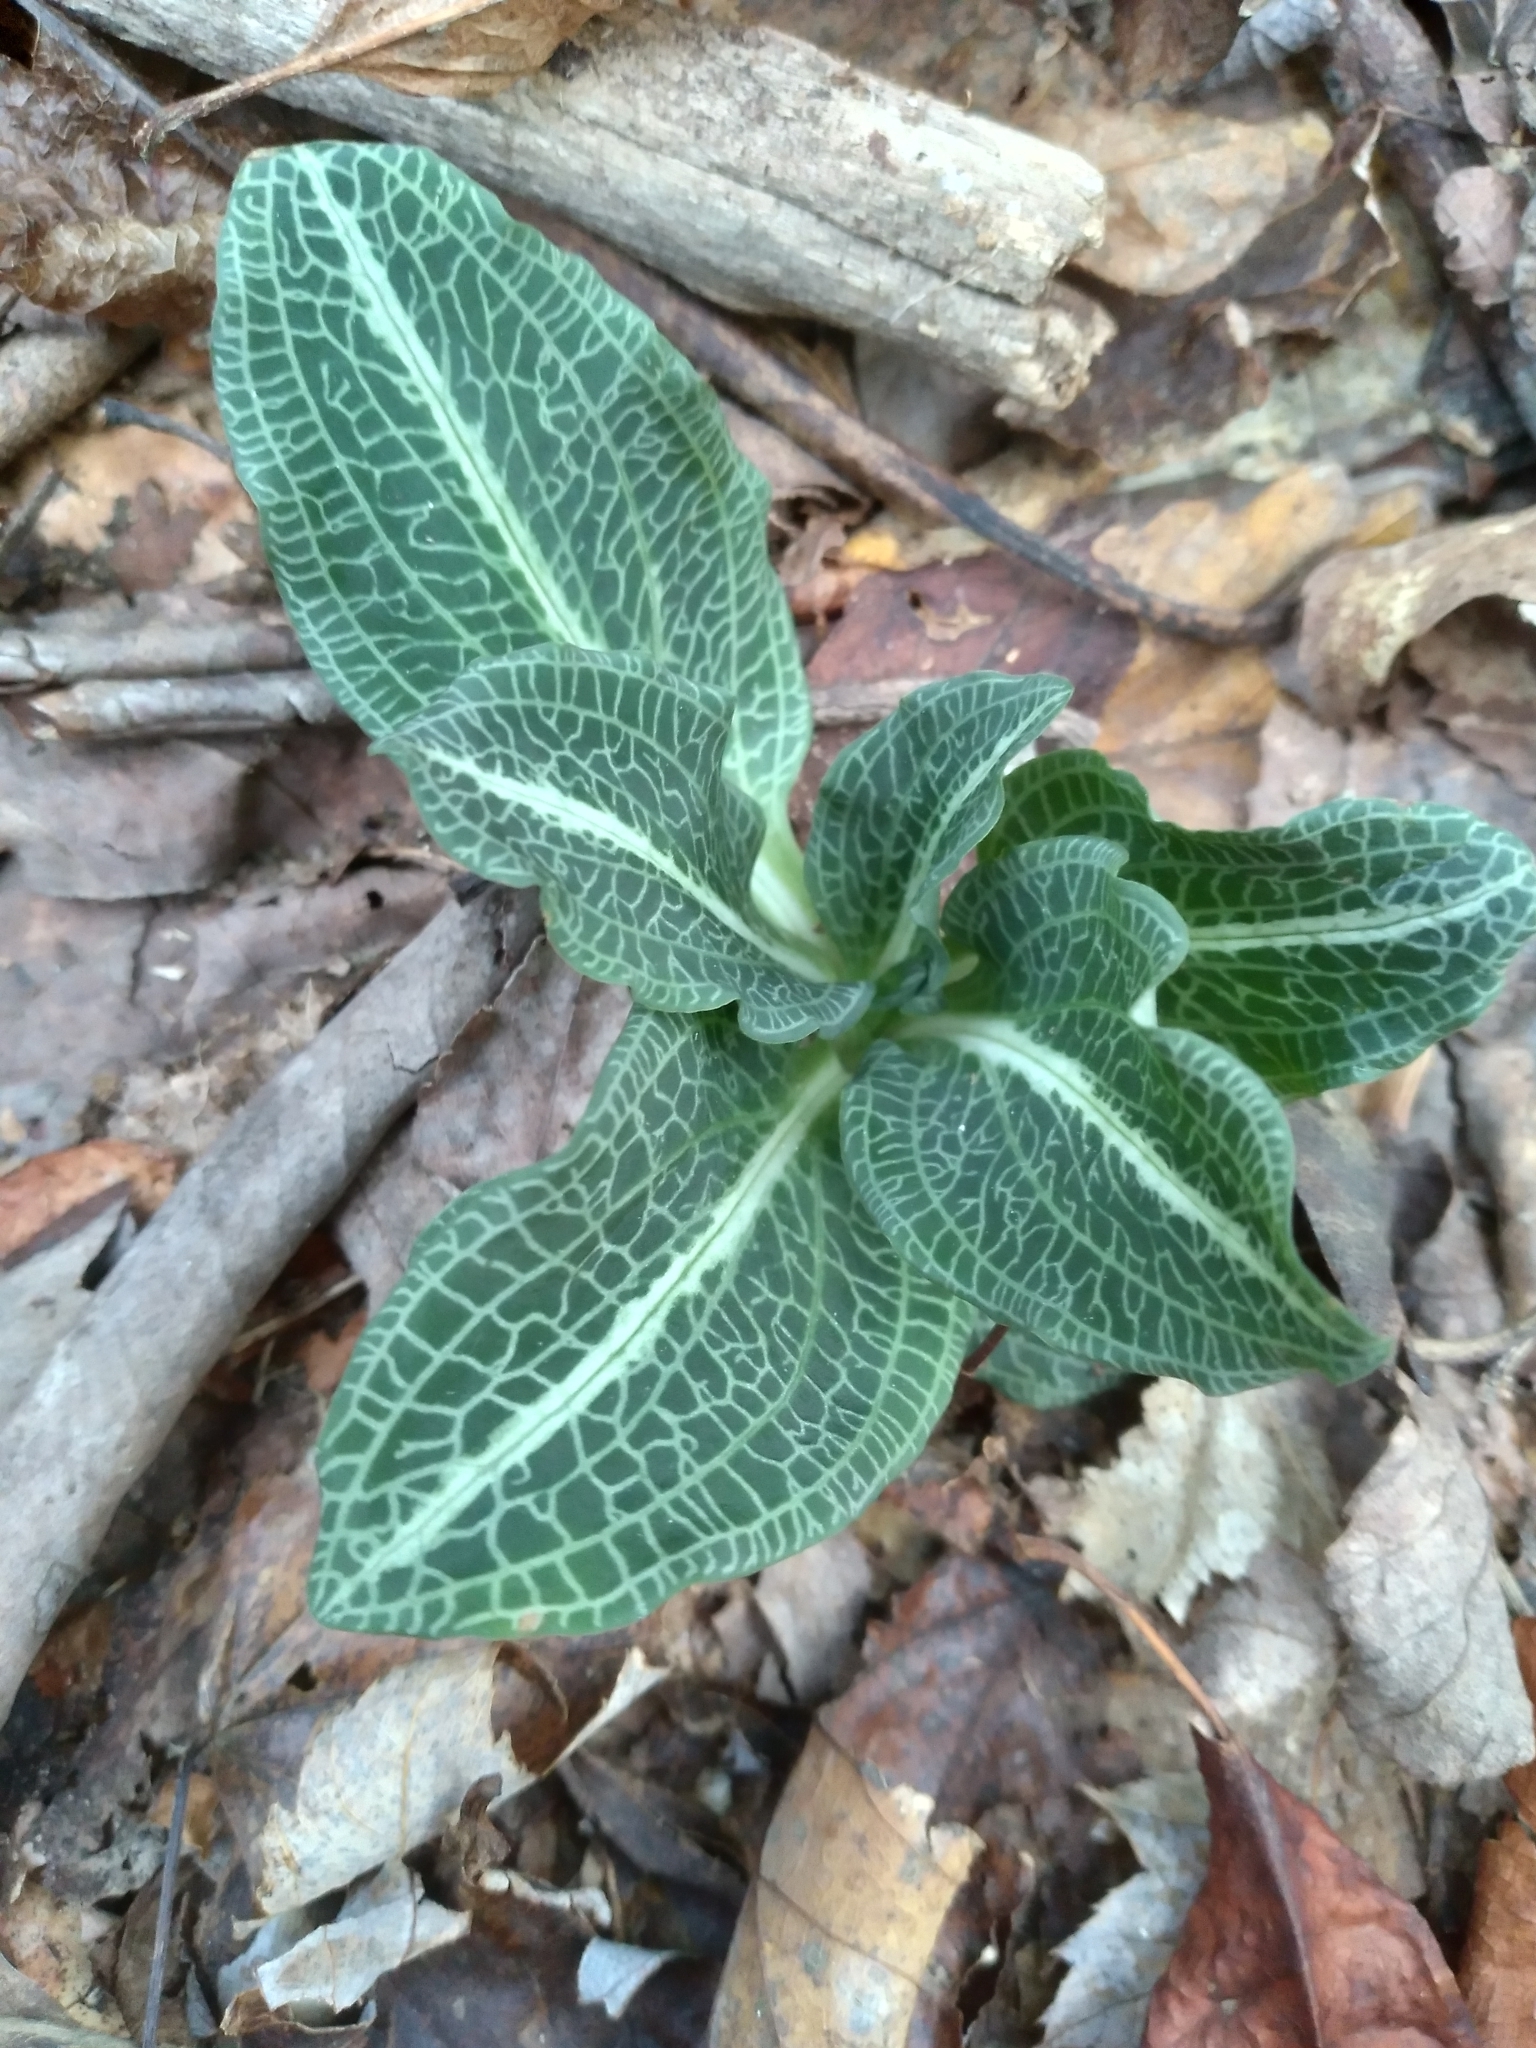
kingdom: Plantae
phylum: Tracheophyta
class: Liliopsida
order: Asparagales
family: Orchidaceae
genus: Goodyera
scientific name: Goodyera pubescens
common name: Downy rattlesnake-plantain
